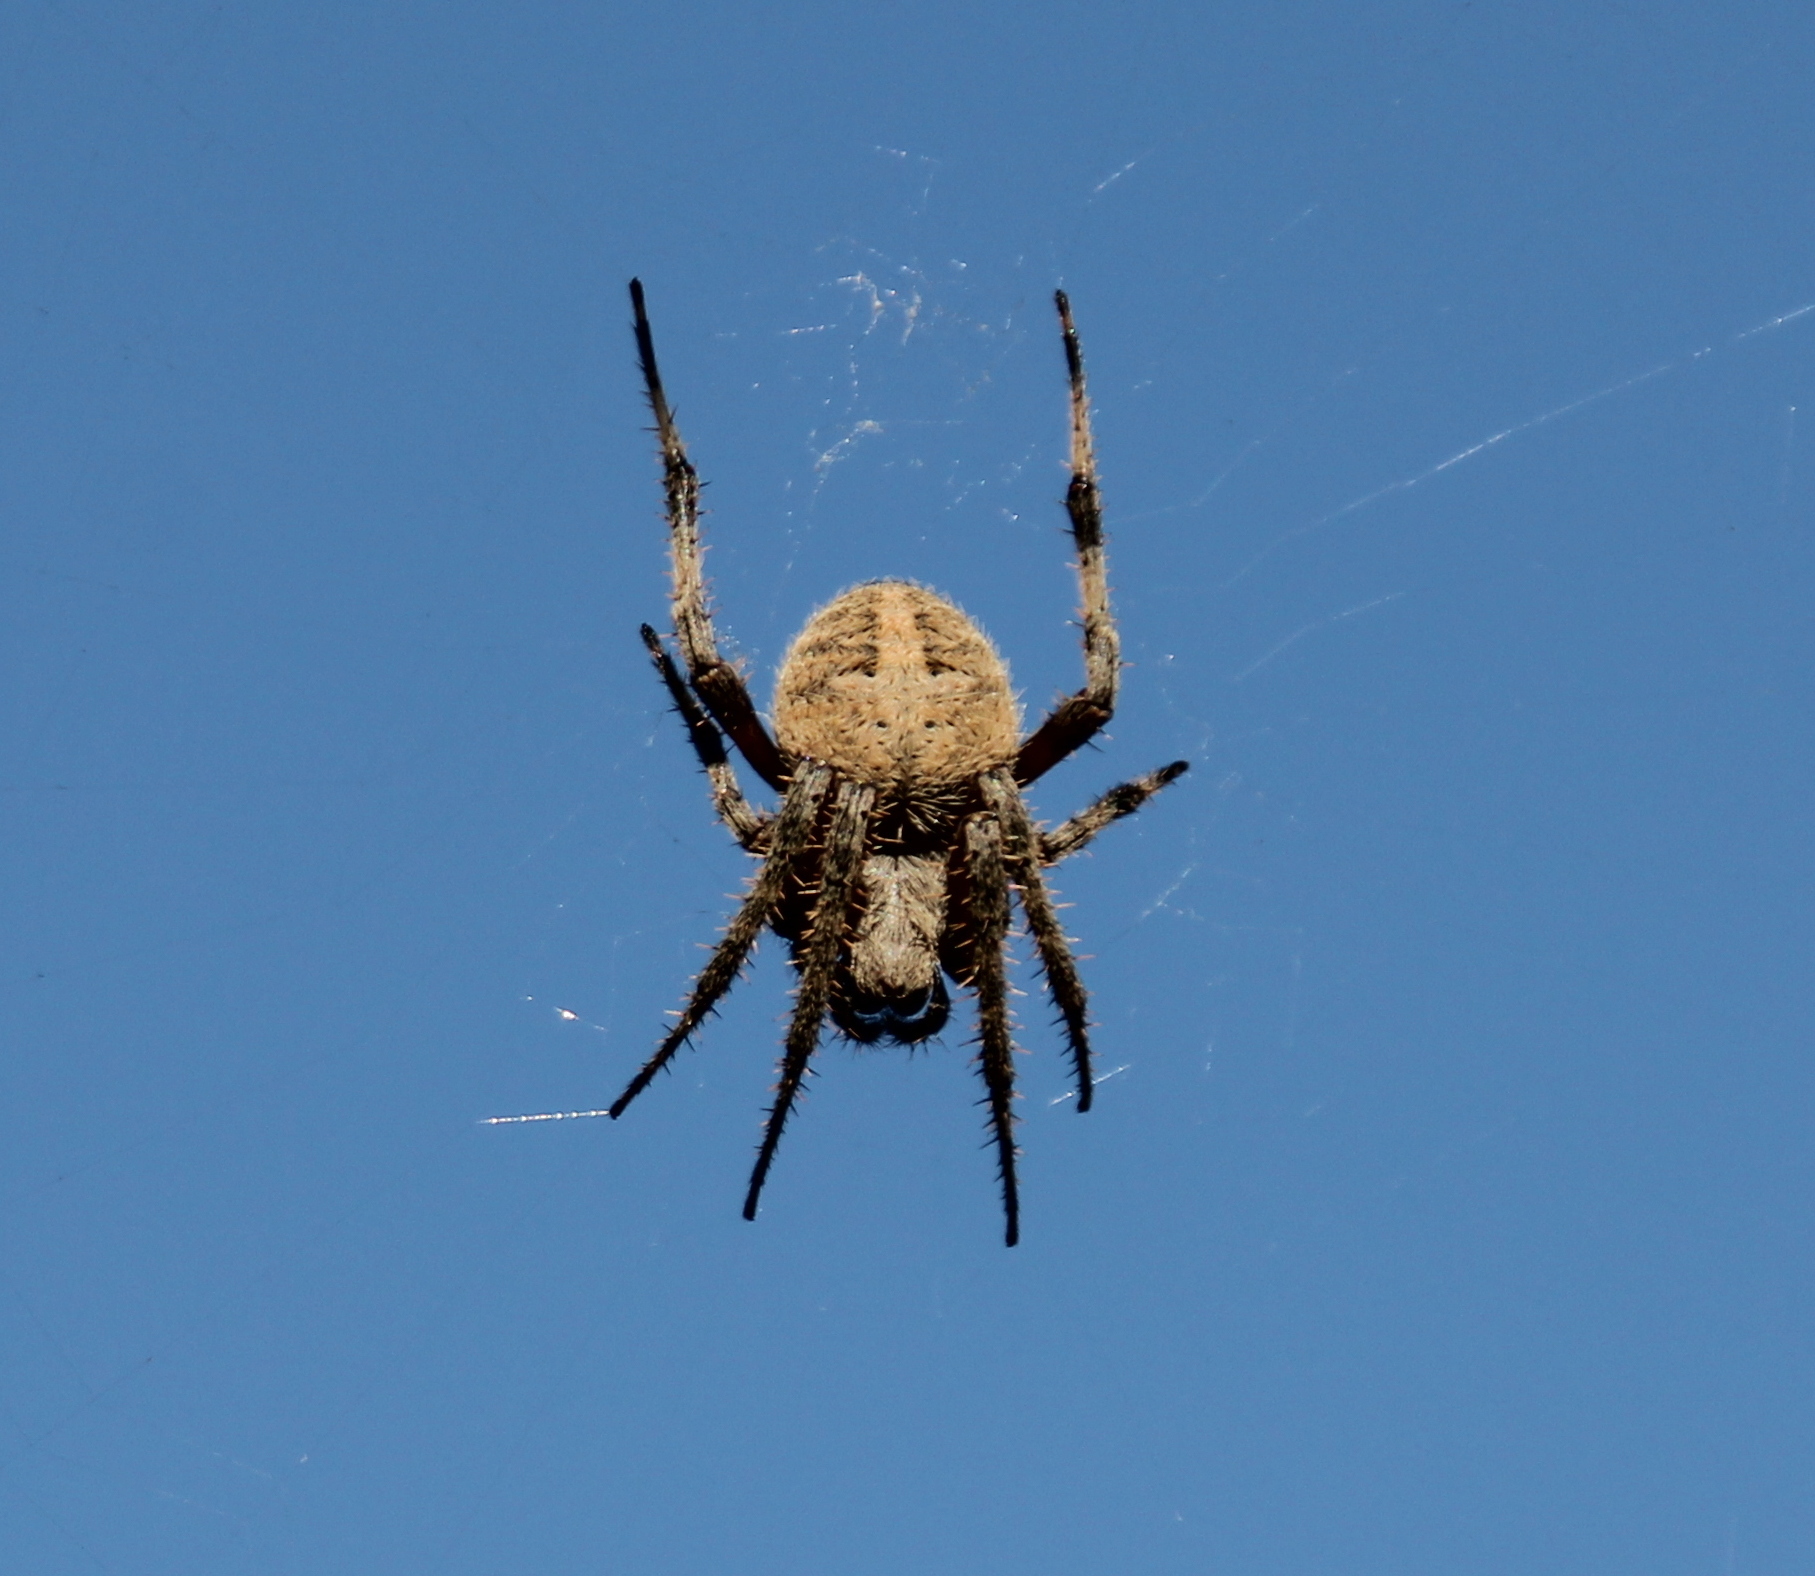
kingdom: Animalia
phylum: Arthropoda
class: Arachnida
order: Araneae
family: Araneidae
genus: Neoscona
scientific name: Neoscona crucifera
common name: Spotted orbweaver
